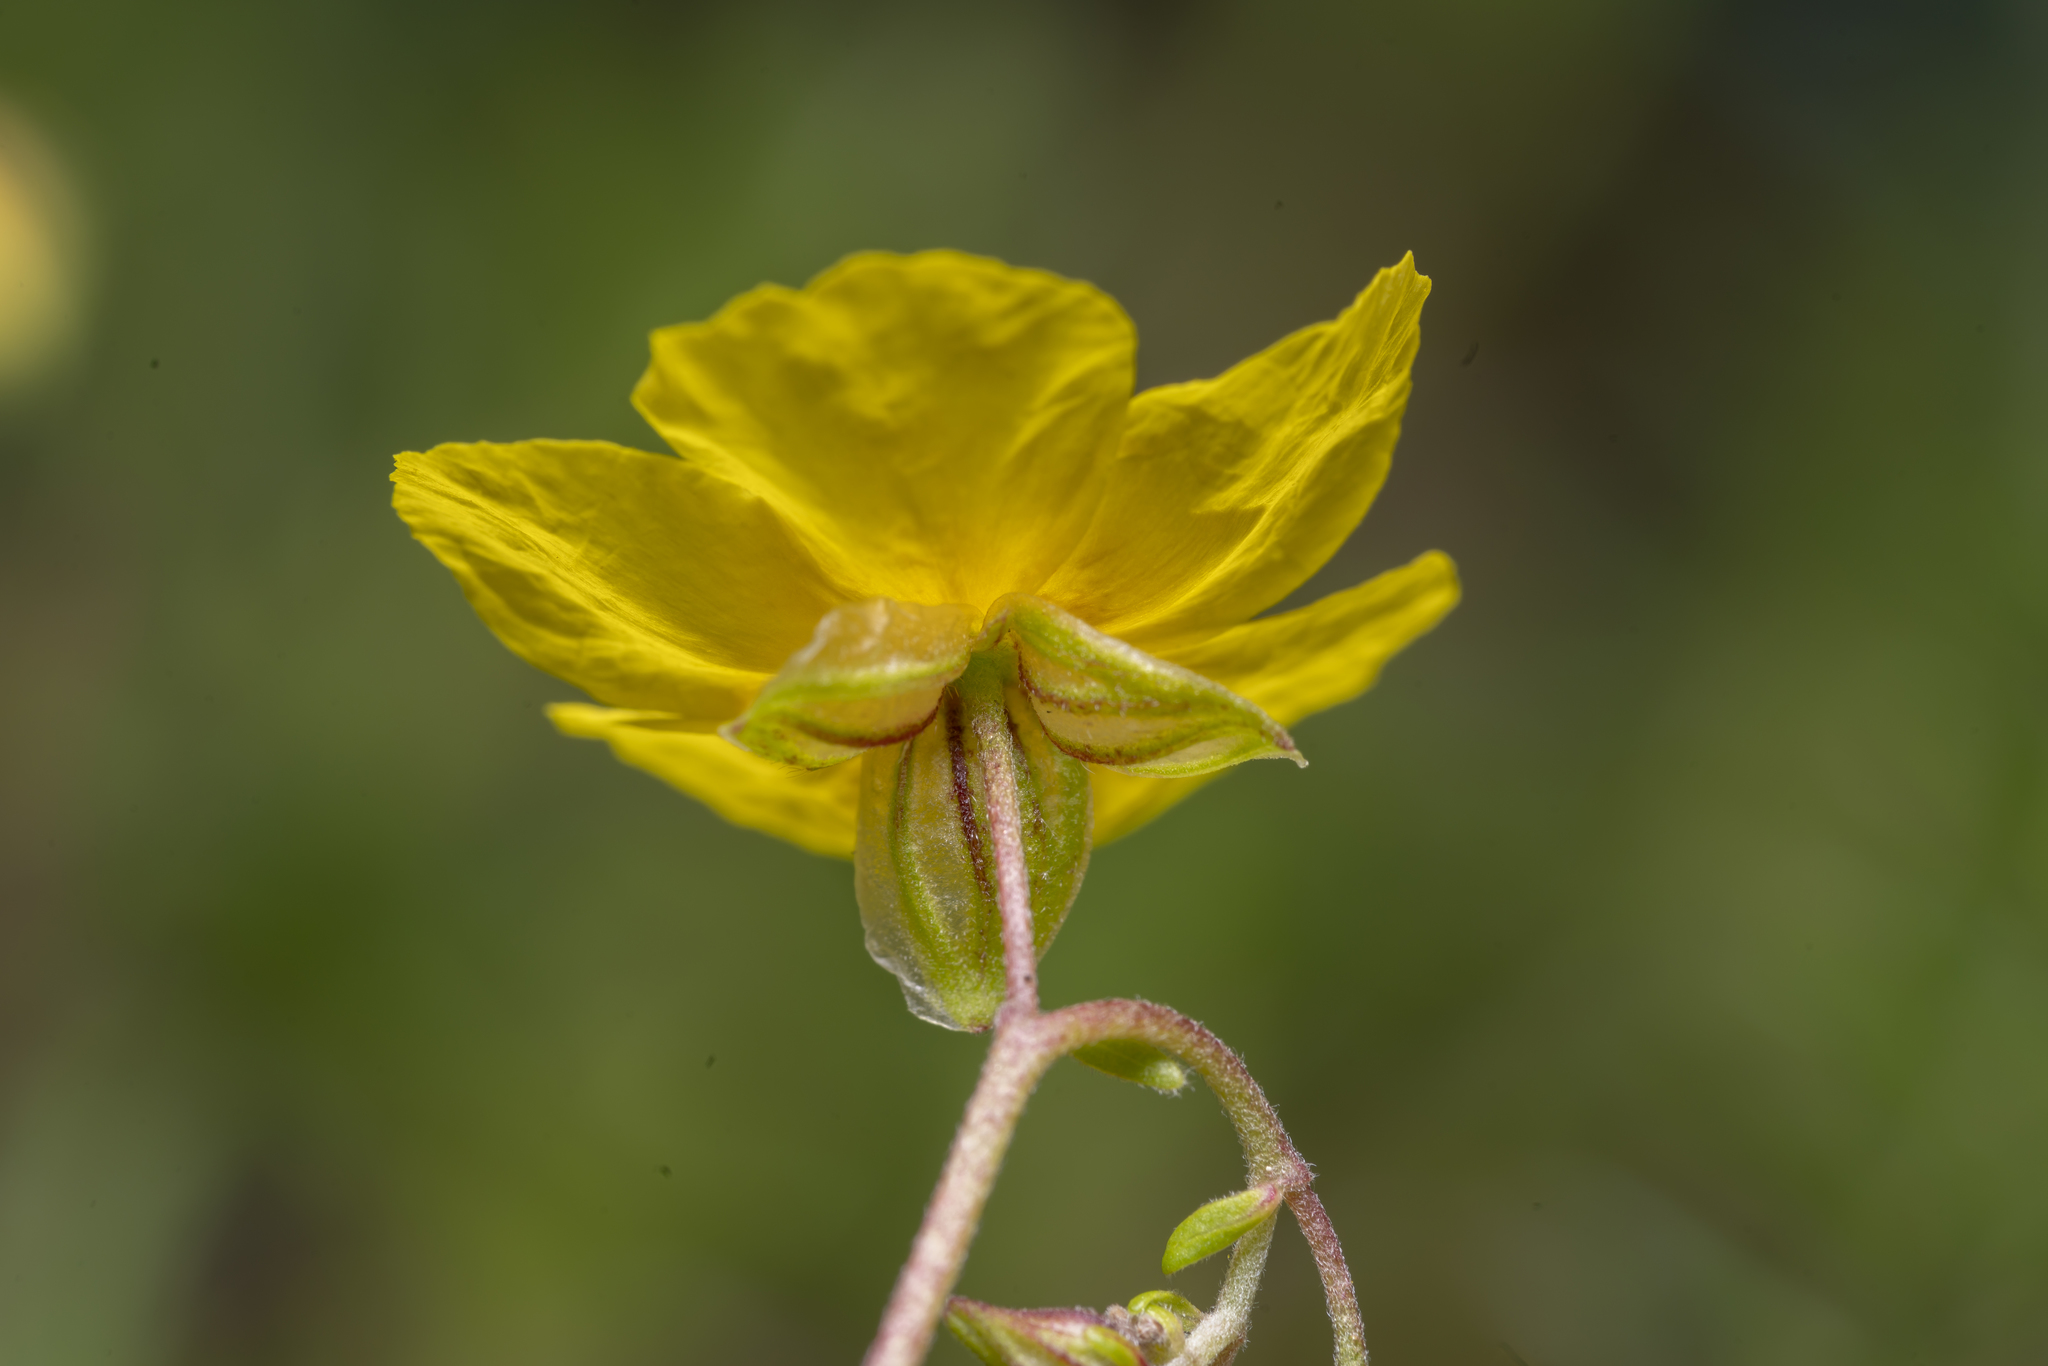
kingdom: Plantae
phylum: Tracheophyta
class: Magnoliopsida
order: Malvales
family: Cistaceae
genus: Helianthemum
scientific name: Helianthemum nummularium
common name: Common rock-rose
